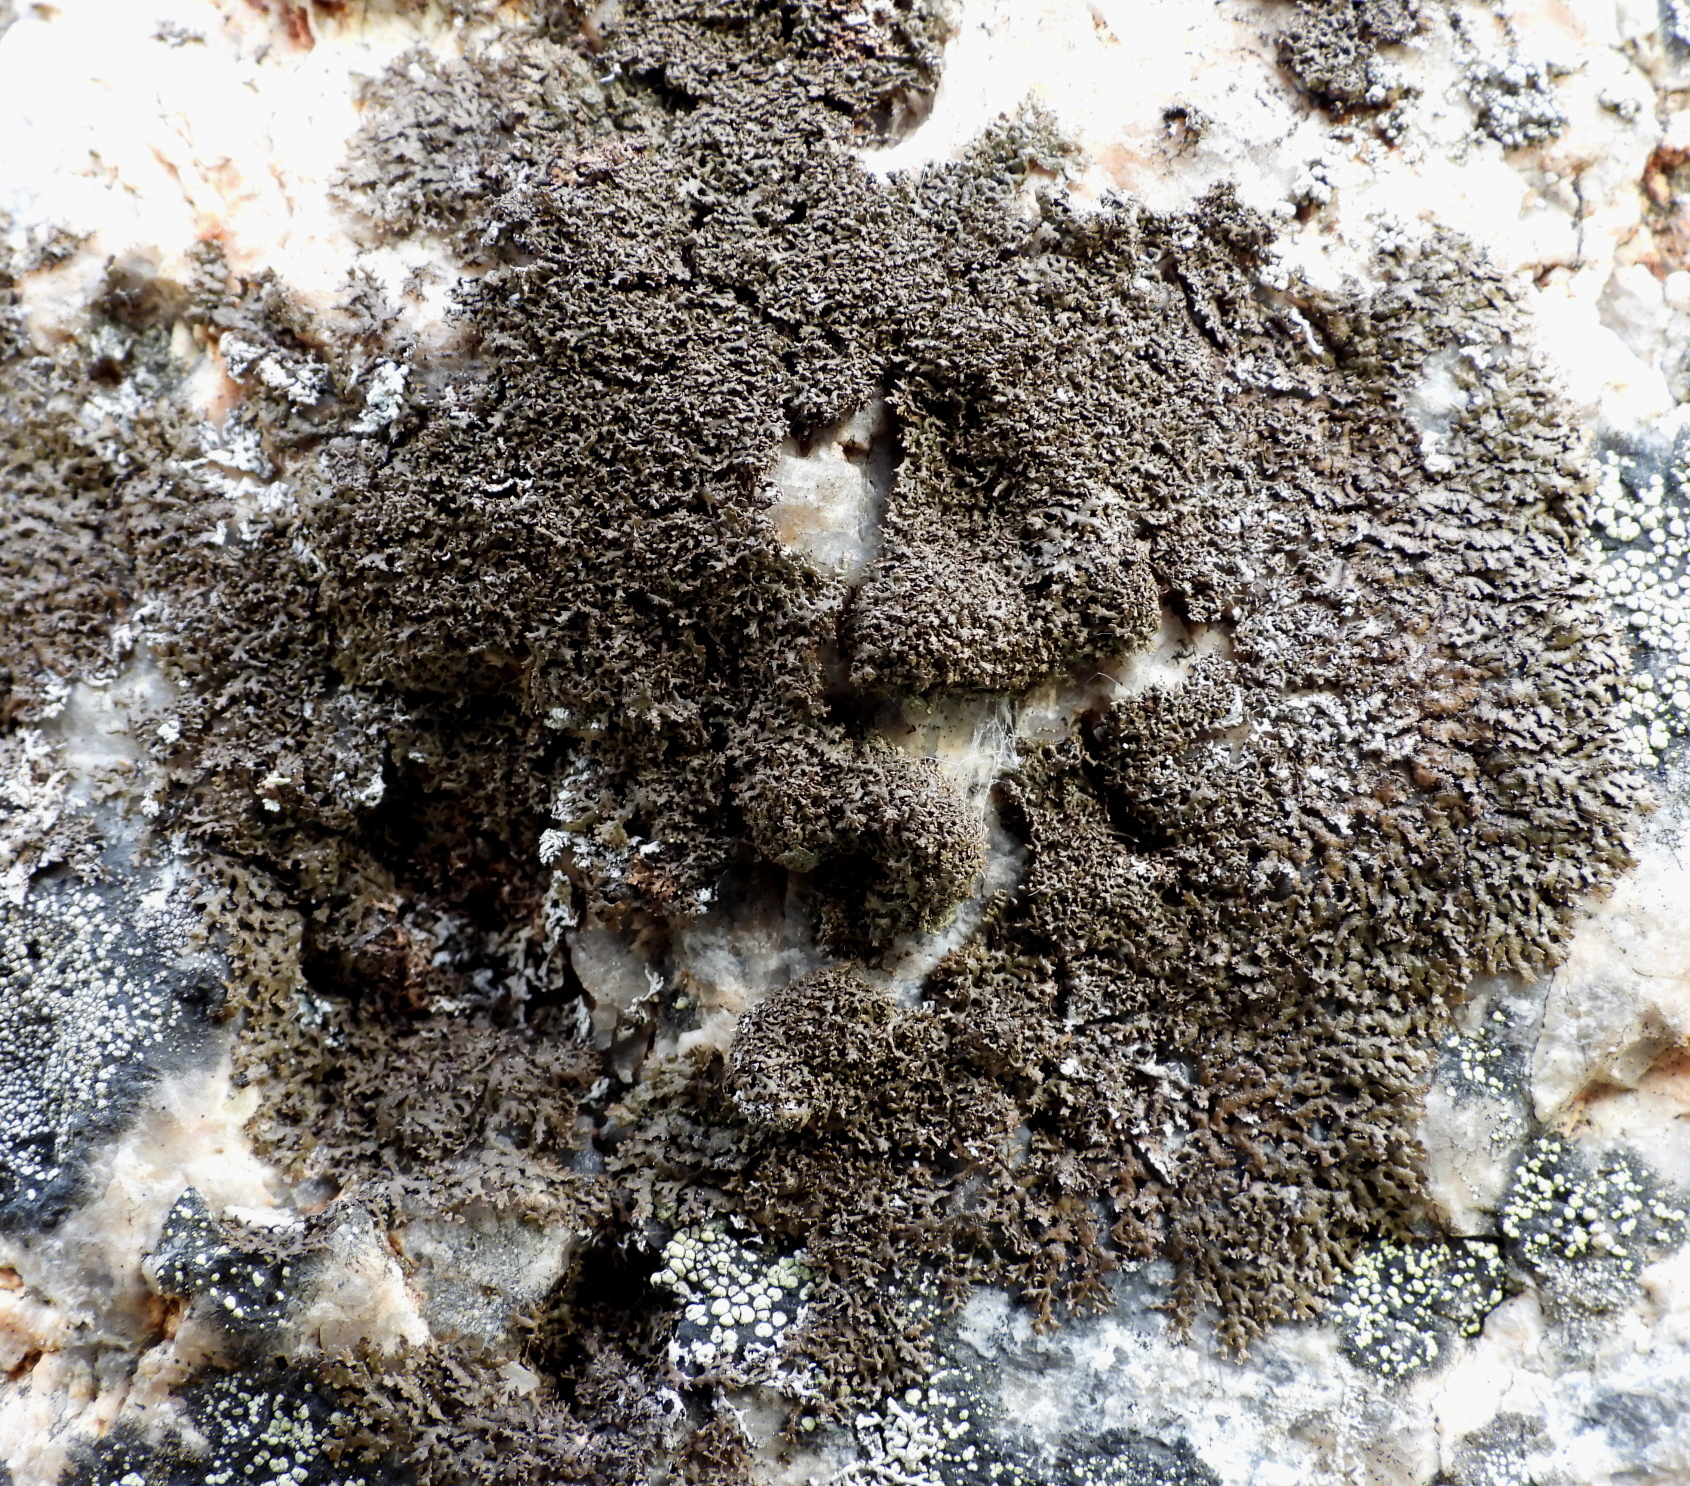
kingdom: Fungi
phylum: Ascomycota
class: Lecanoromycetes
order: Lecanorales
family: Parmeliaceae
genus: Montanelia
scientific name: Montanelia panniformis
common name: Shingled camouflage lichen
